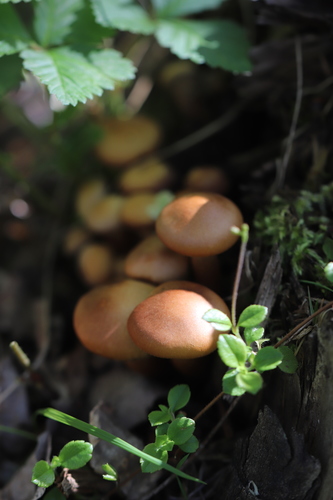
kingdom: Fungi
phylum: Basidiomycota
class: Agaricomycetes
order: Agaricales
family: Strophariaceae
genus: Kuehneromyces
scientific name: Kuehneromyces mutabilis
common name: Sheathed woodtuft
